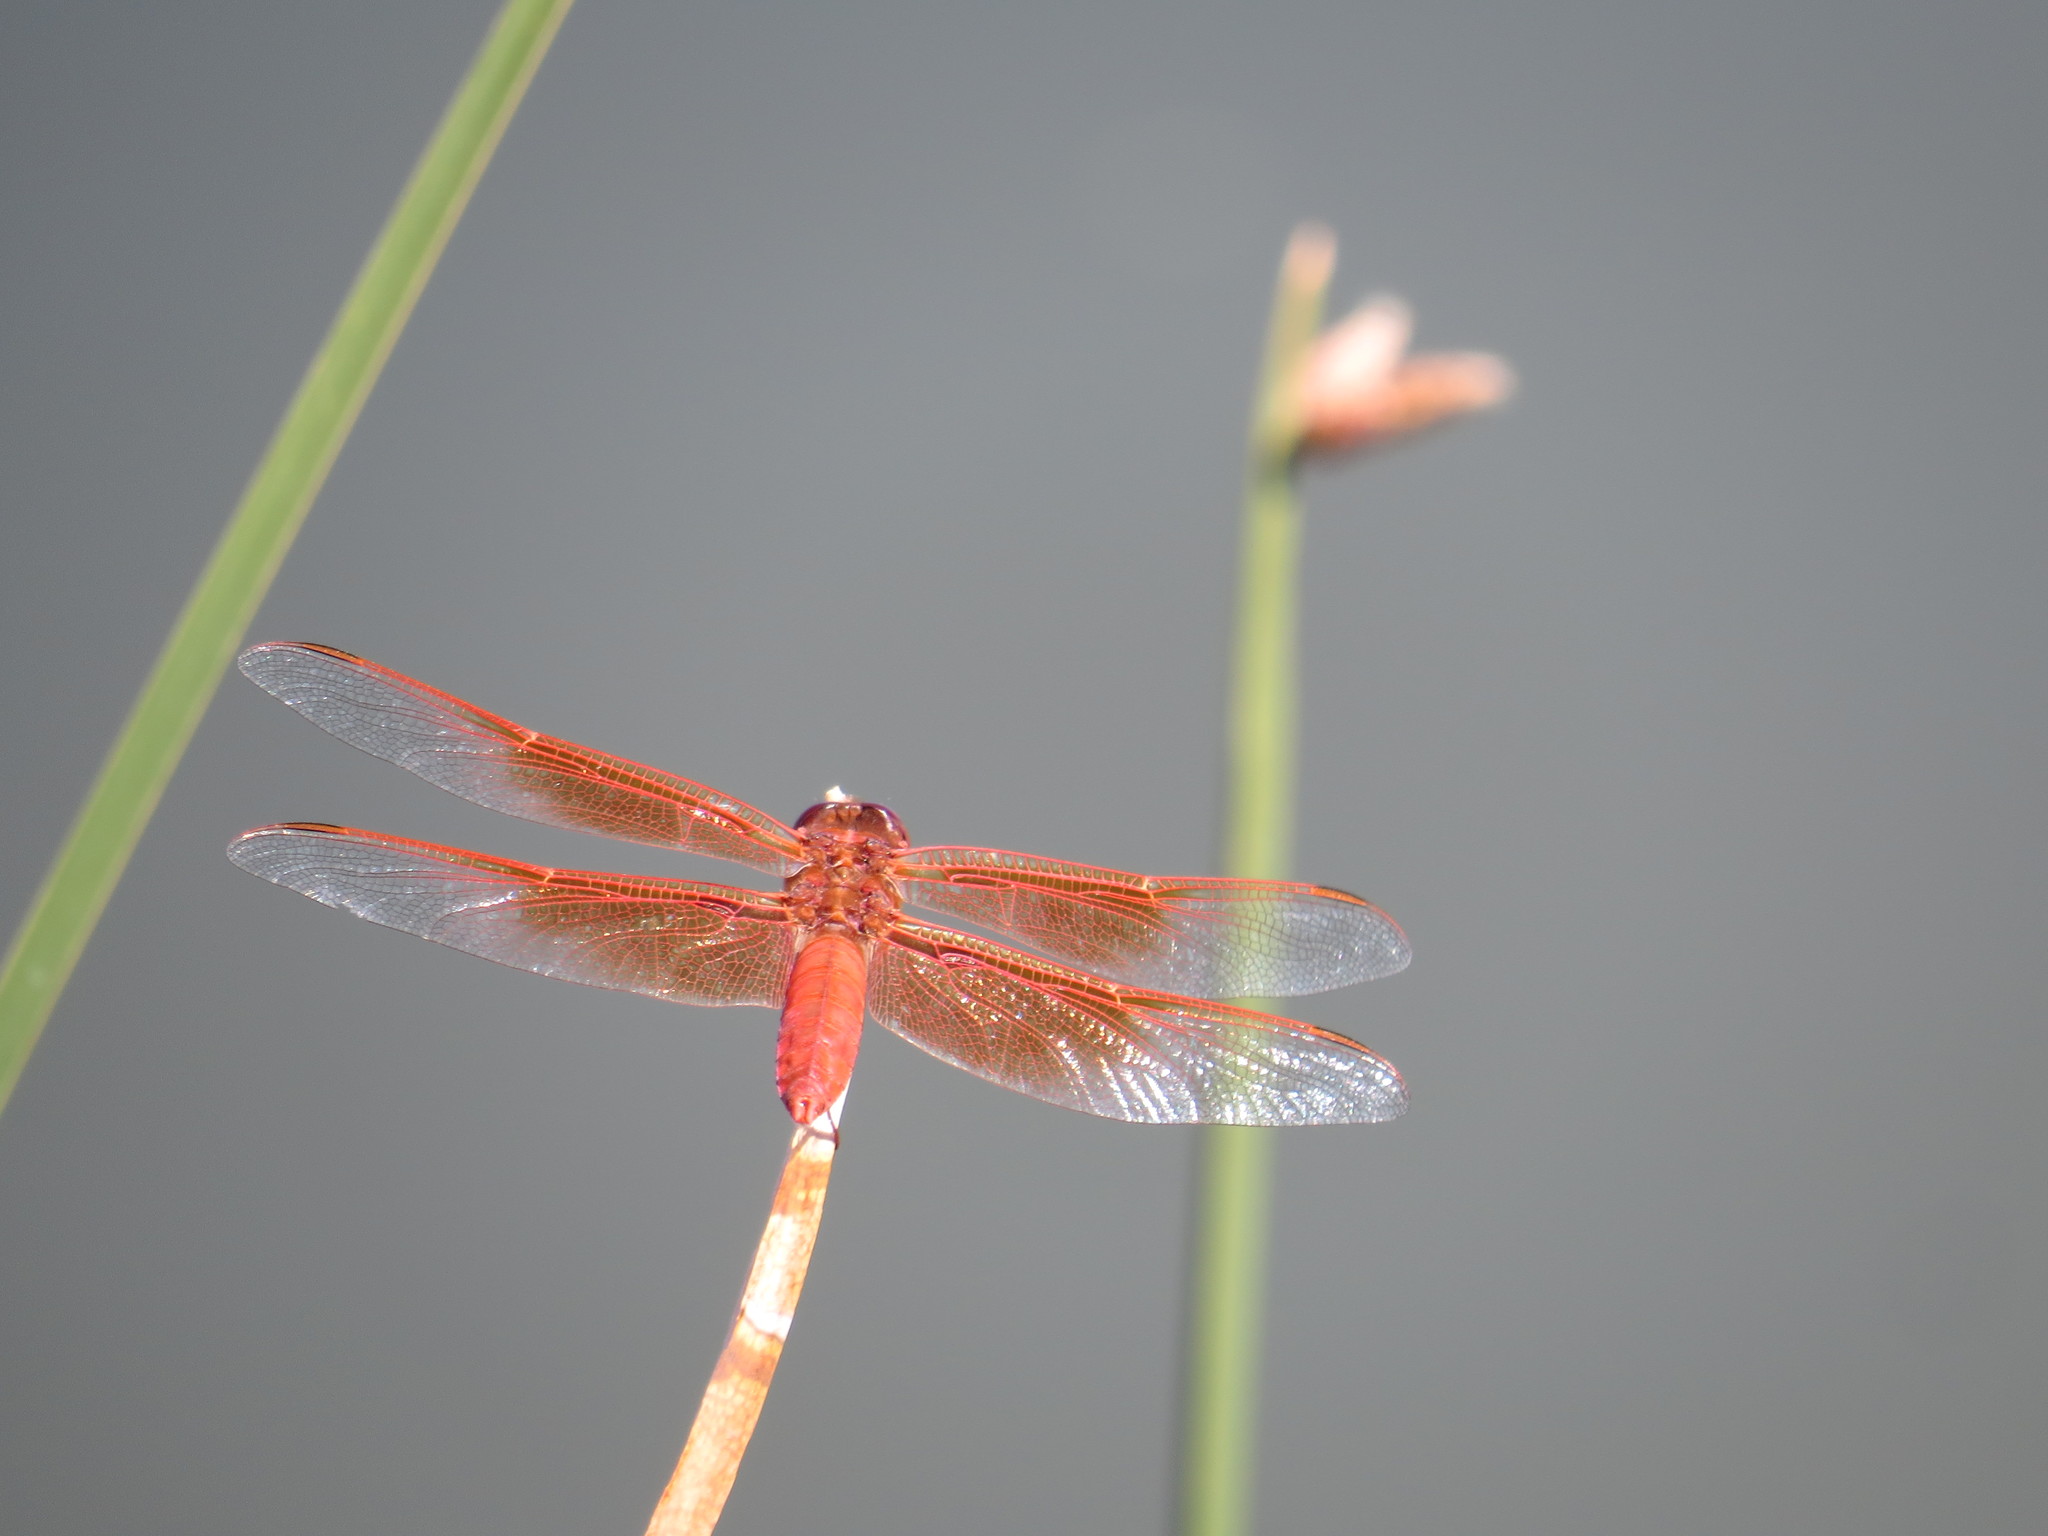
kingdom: Animalia
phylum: Arthropoda
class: Insecta
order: Odonata
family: Libellulidae
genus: Libellula
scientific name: Libellula saturata
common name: Flame skimmer
